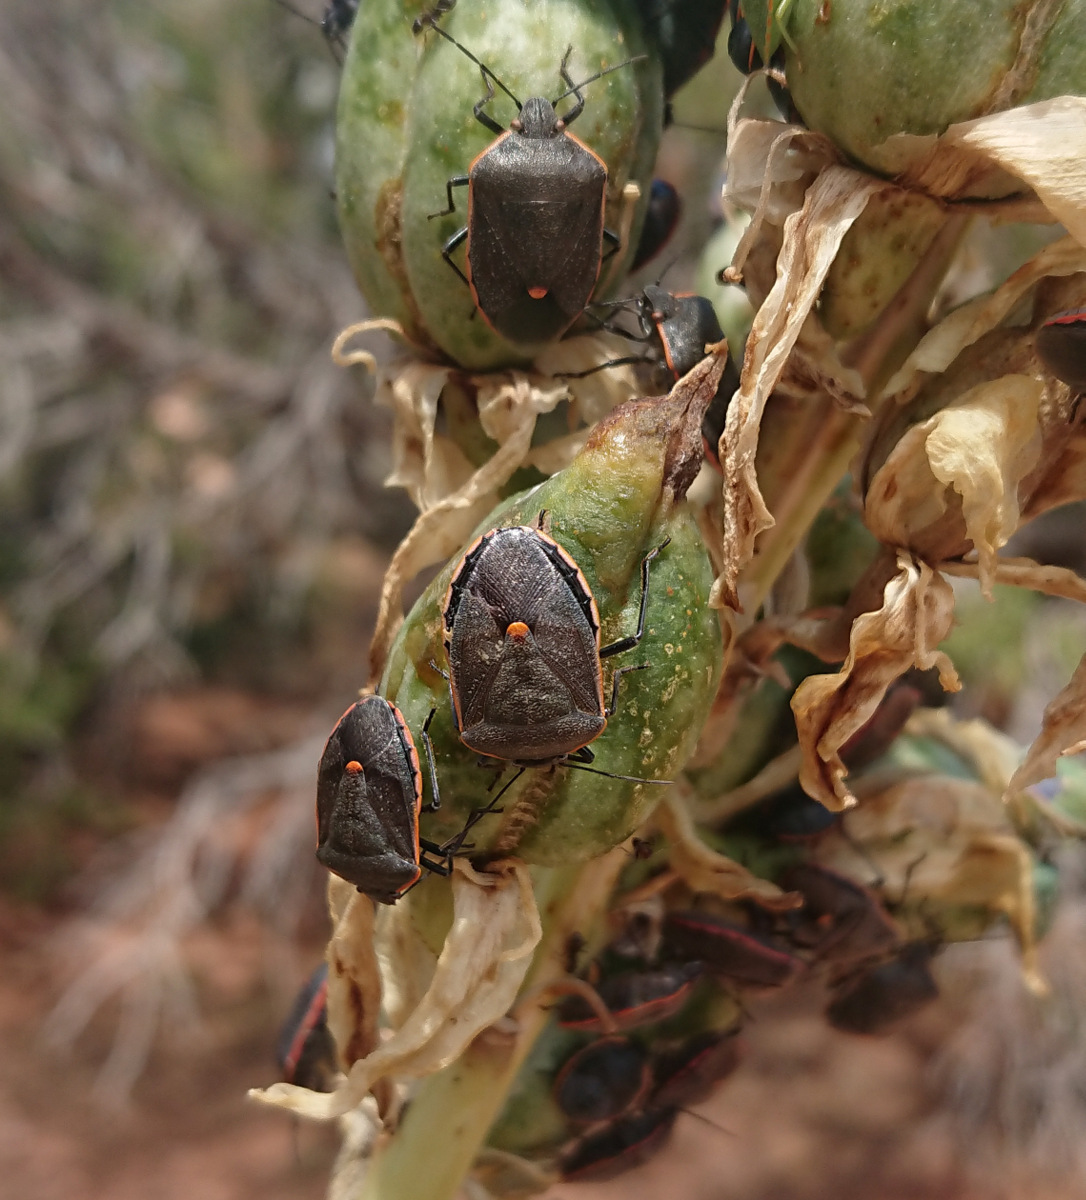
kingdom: Animalia
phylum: Arthropoda
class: Insecta
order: Hemiptera
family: Pentatomidae
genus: Chlorochroa
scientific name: Chlorochroa ligata
